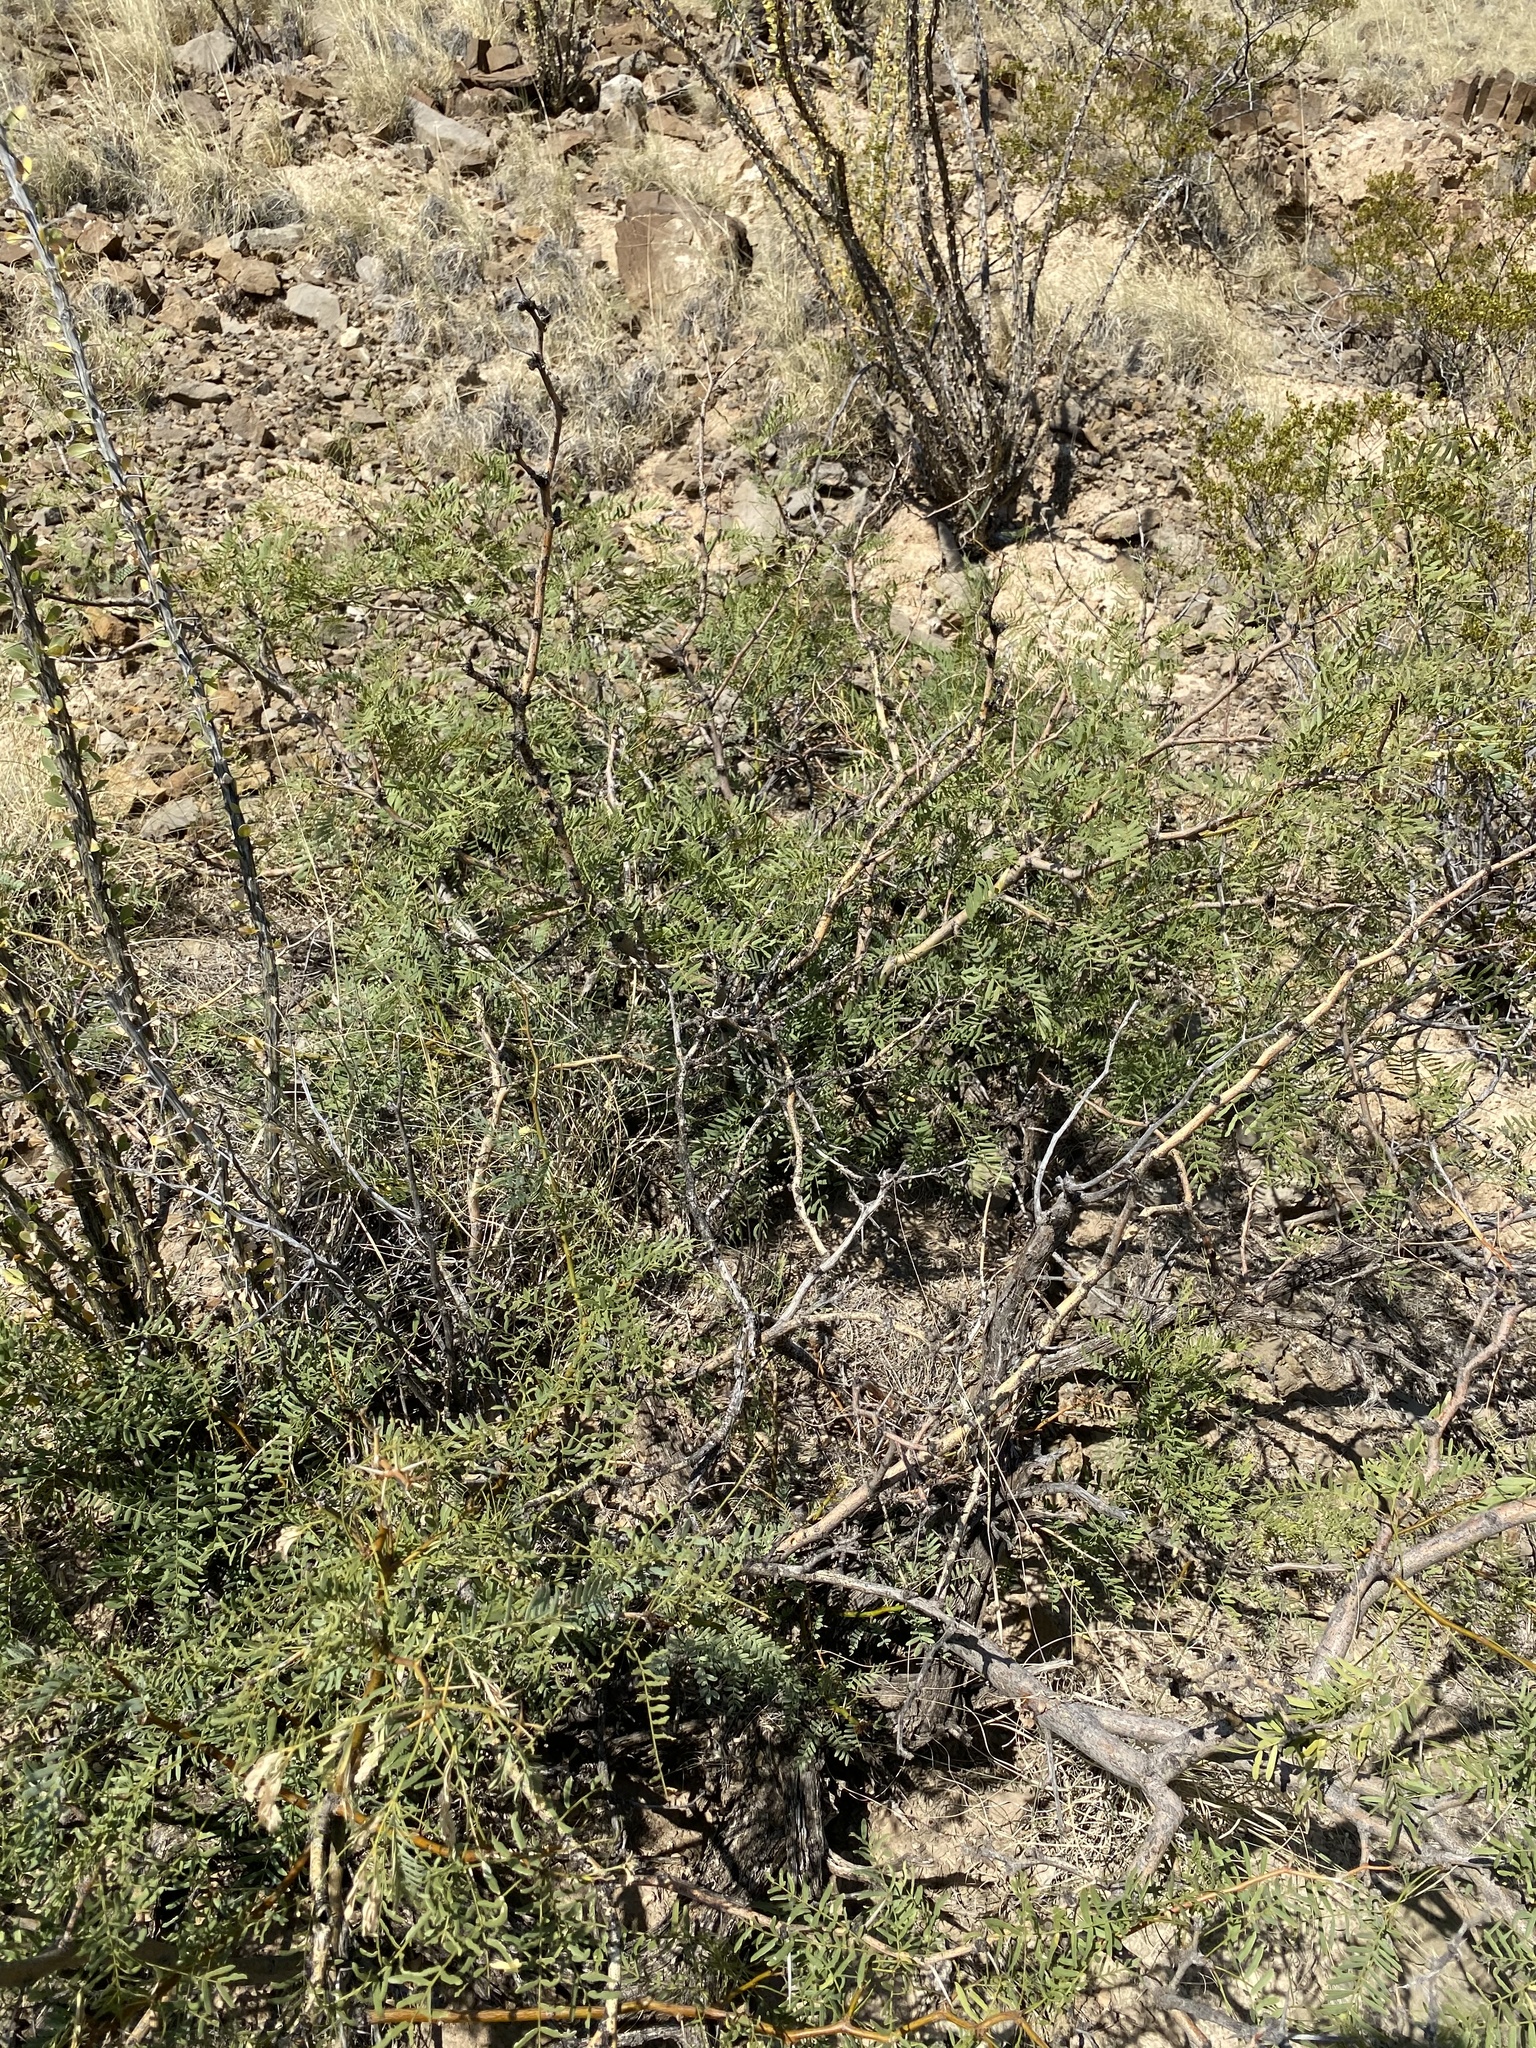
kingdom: Plantae
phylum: Tracheophyta
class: Magnoliopsida
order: Fabales
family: Fabaceae
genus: Prosopis
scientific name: Prosopis glandulosa
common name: Honey mesquite
